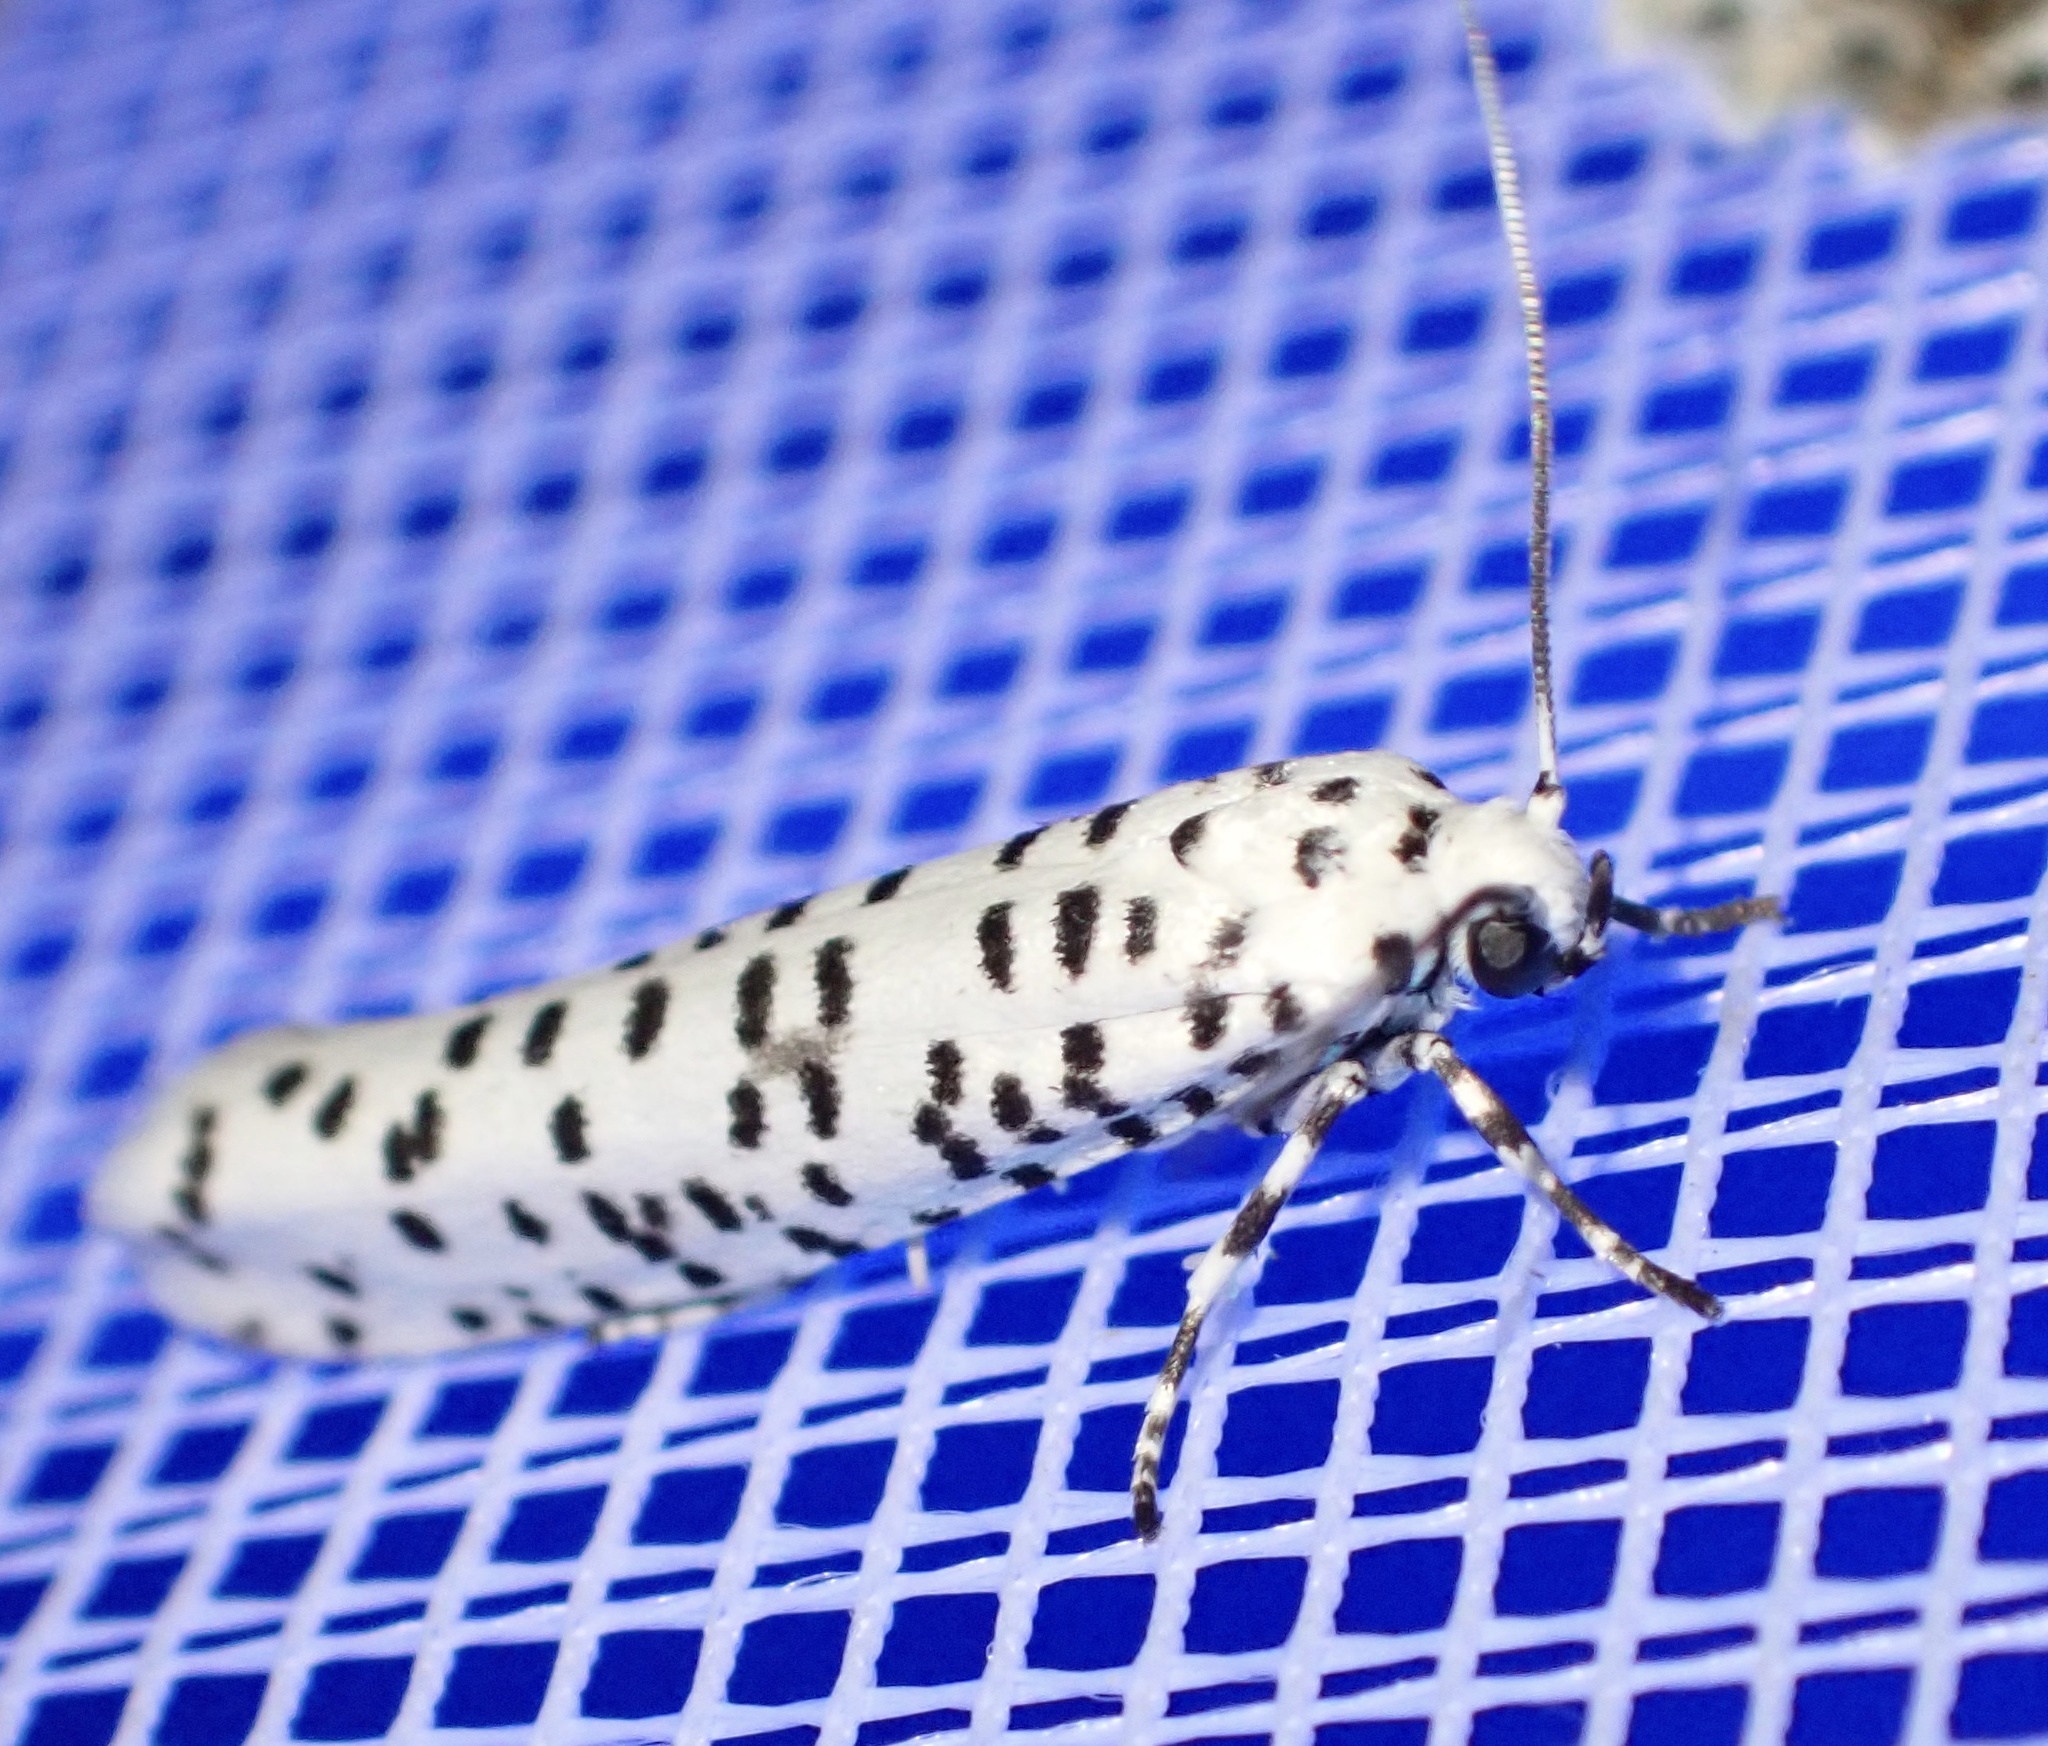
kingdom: Animalia
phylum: Arthropoda
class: Insecta
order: Lepidoptera
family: Yponomeutidae
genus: Yponomeuta
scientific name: Yponomeuta strigillata
